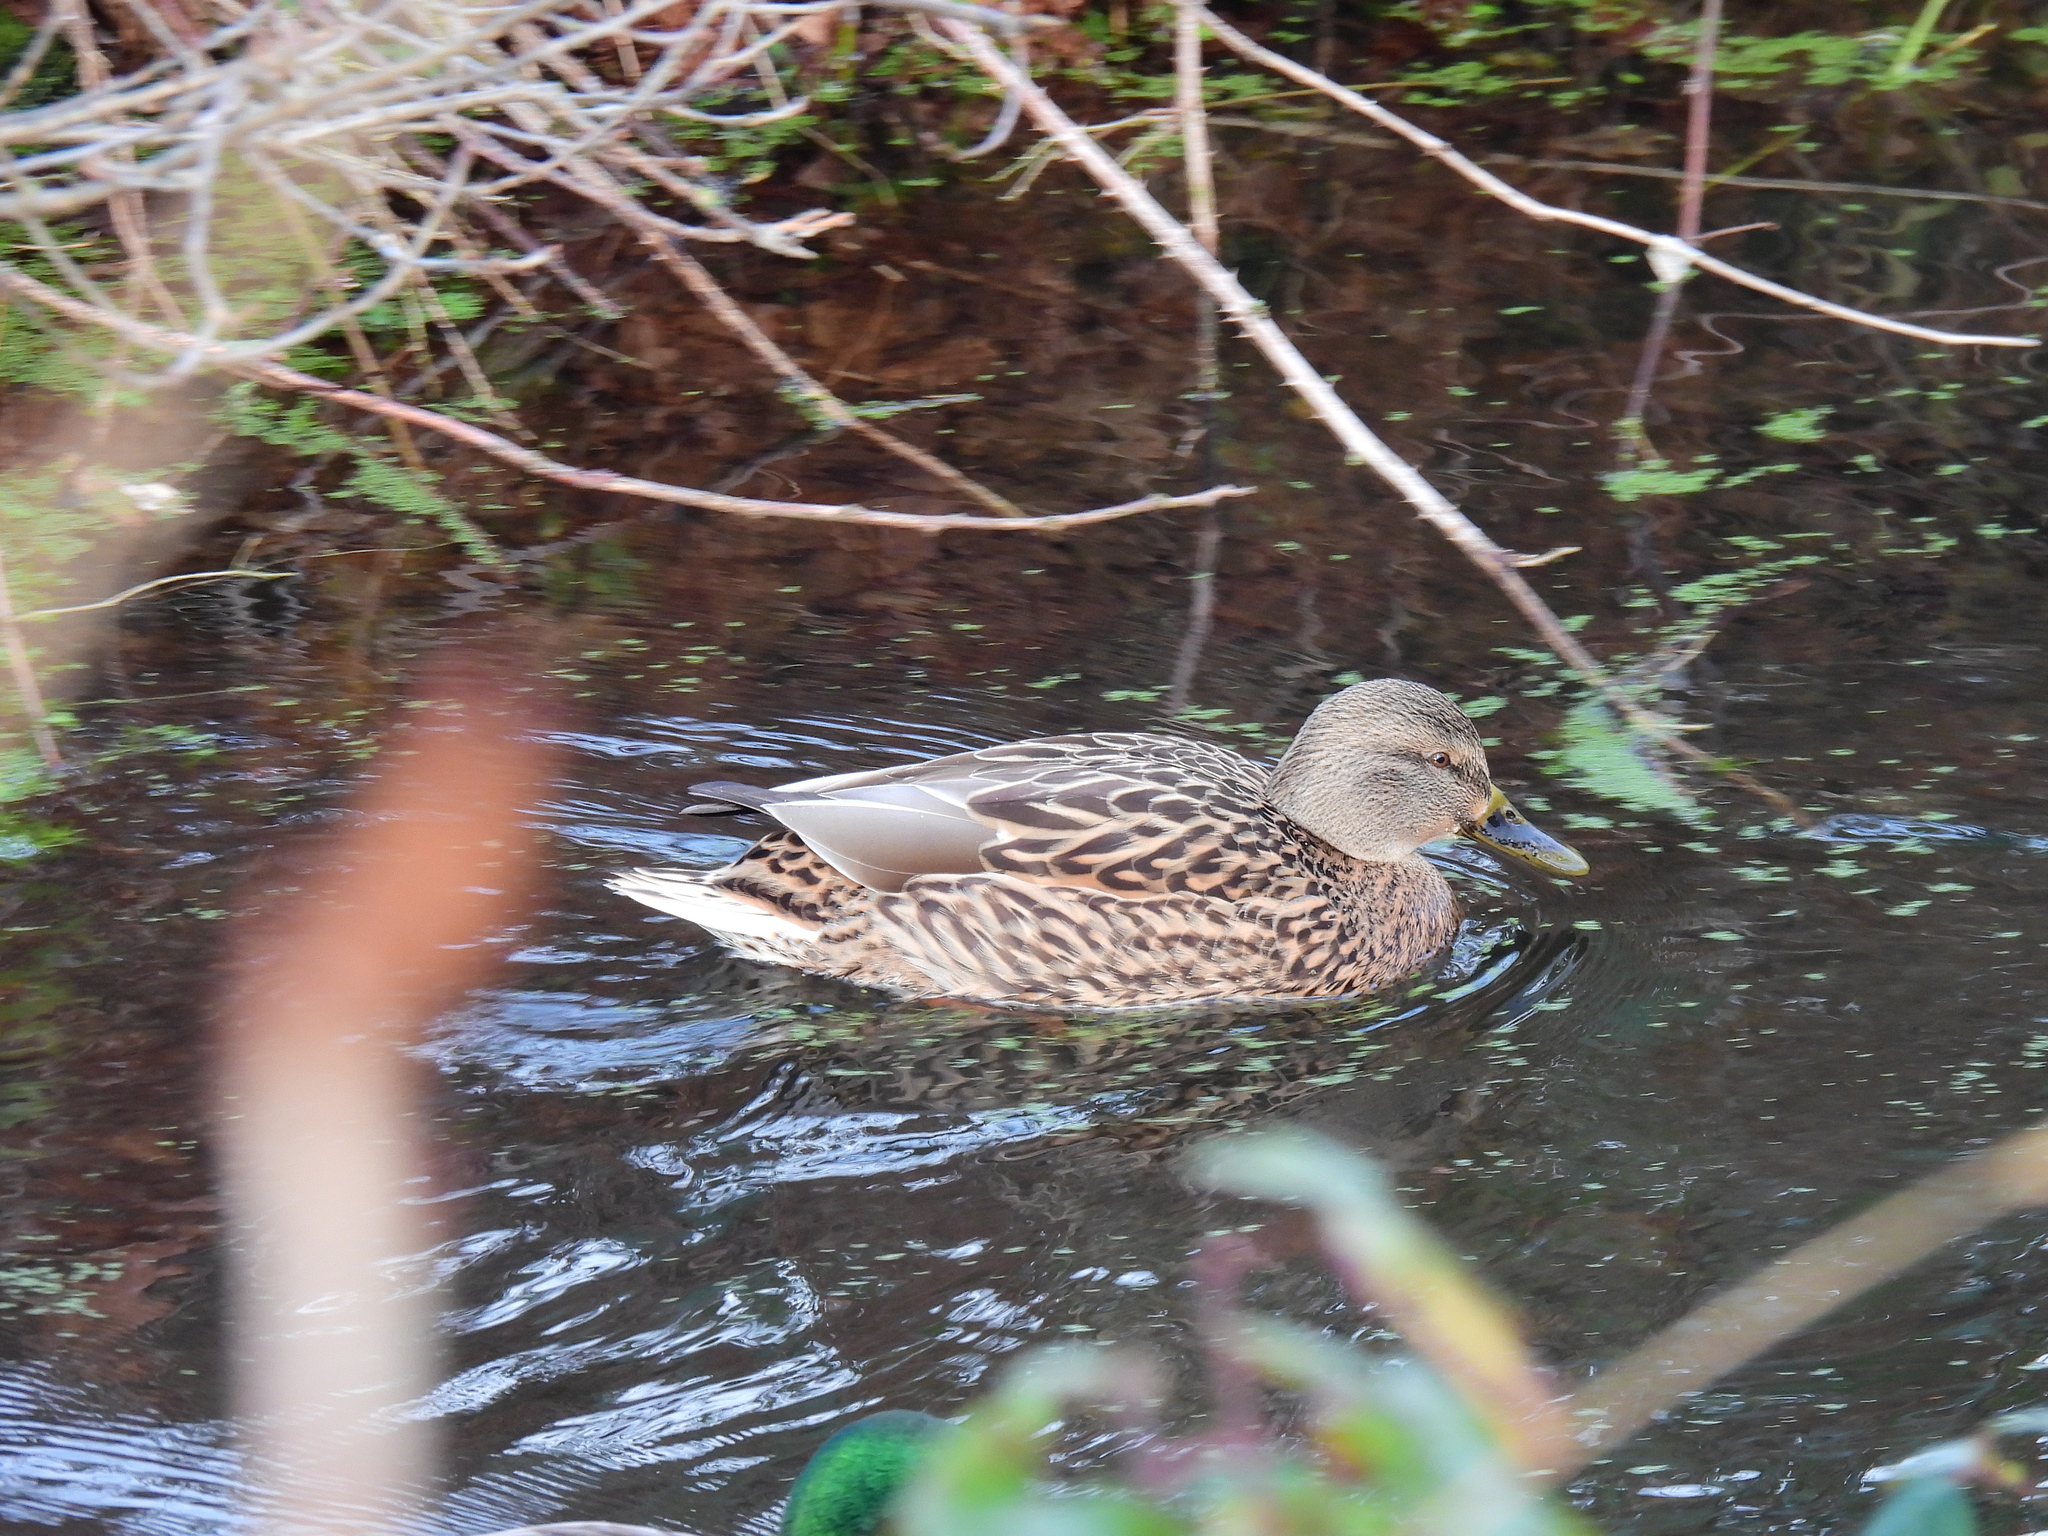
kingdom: Animalia
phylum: Chordata
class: Aves
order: Anseriformes
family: Anatidae
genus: Anas
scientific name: Anas platyrhynchos
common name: Mallard
